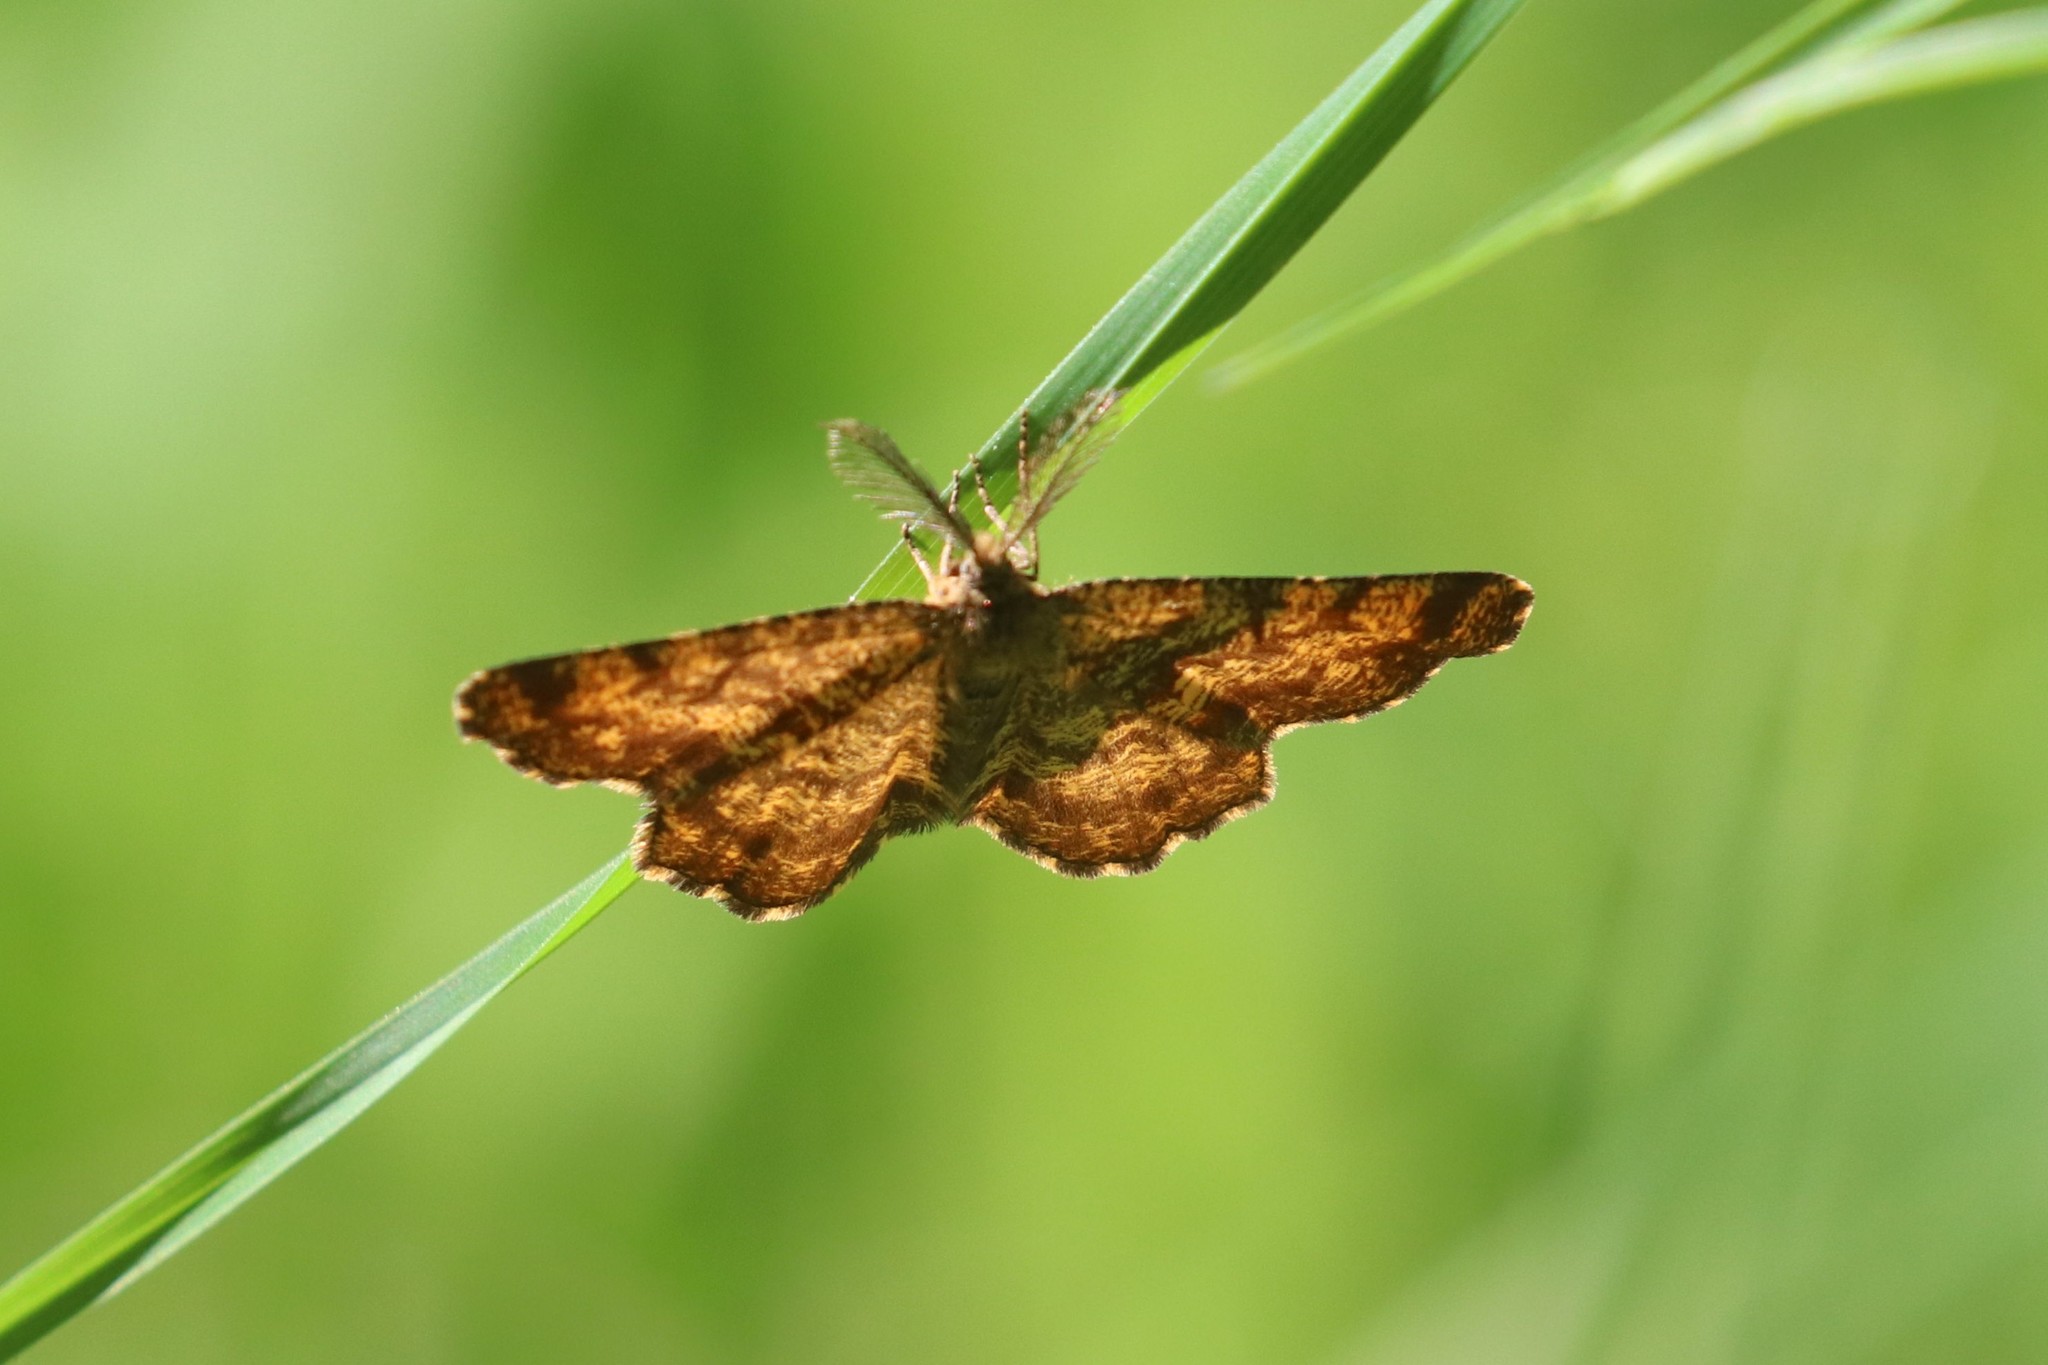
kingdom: Animalia
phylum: Arthropoda
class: Insecta
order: Lepidoptera
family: Geometridae
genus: Ematurga
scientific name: Ematurga atomaria
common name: Common heath
